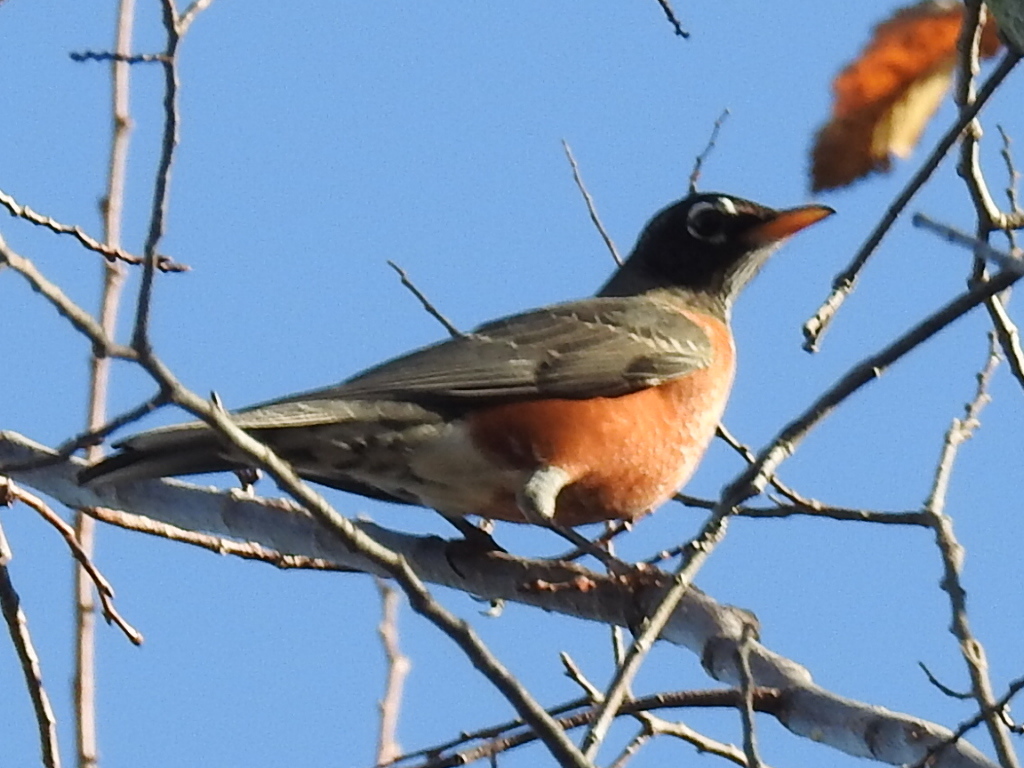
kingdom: Animalia
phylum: Chordata
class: Aves
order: Passeriformes
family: Turdidae
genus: Turdus
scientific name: Turdus migratorius
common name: American robin
